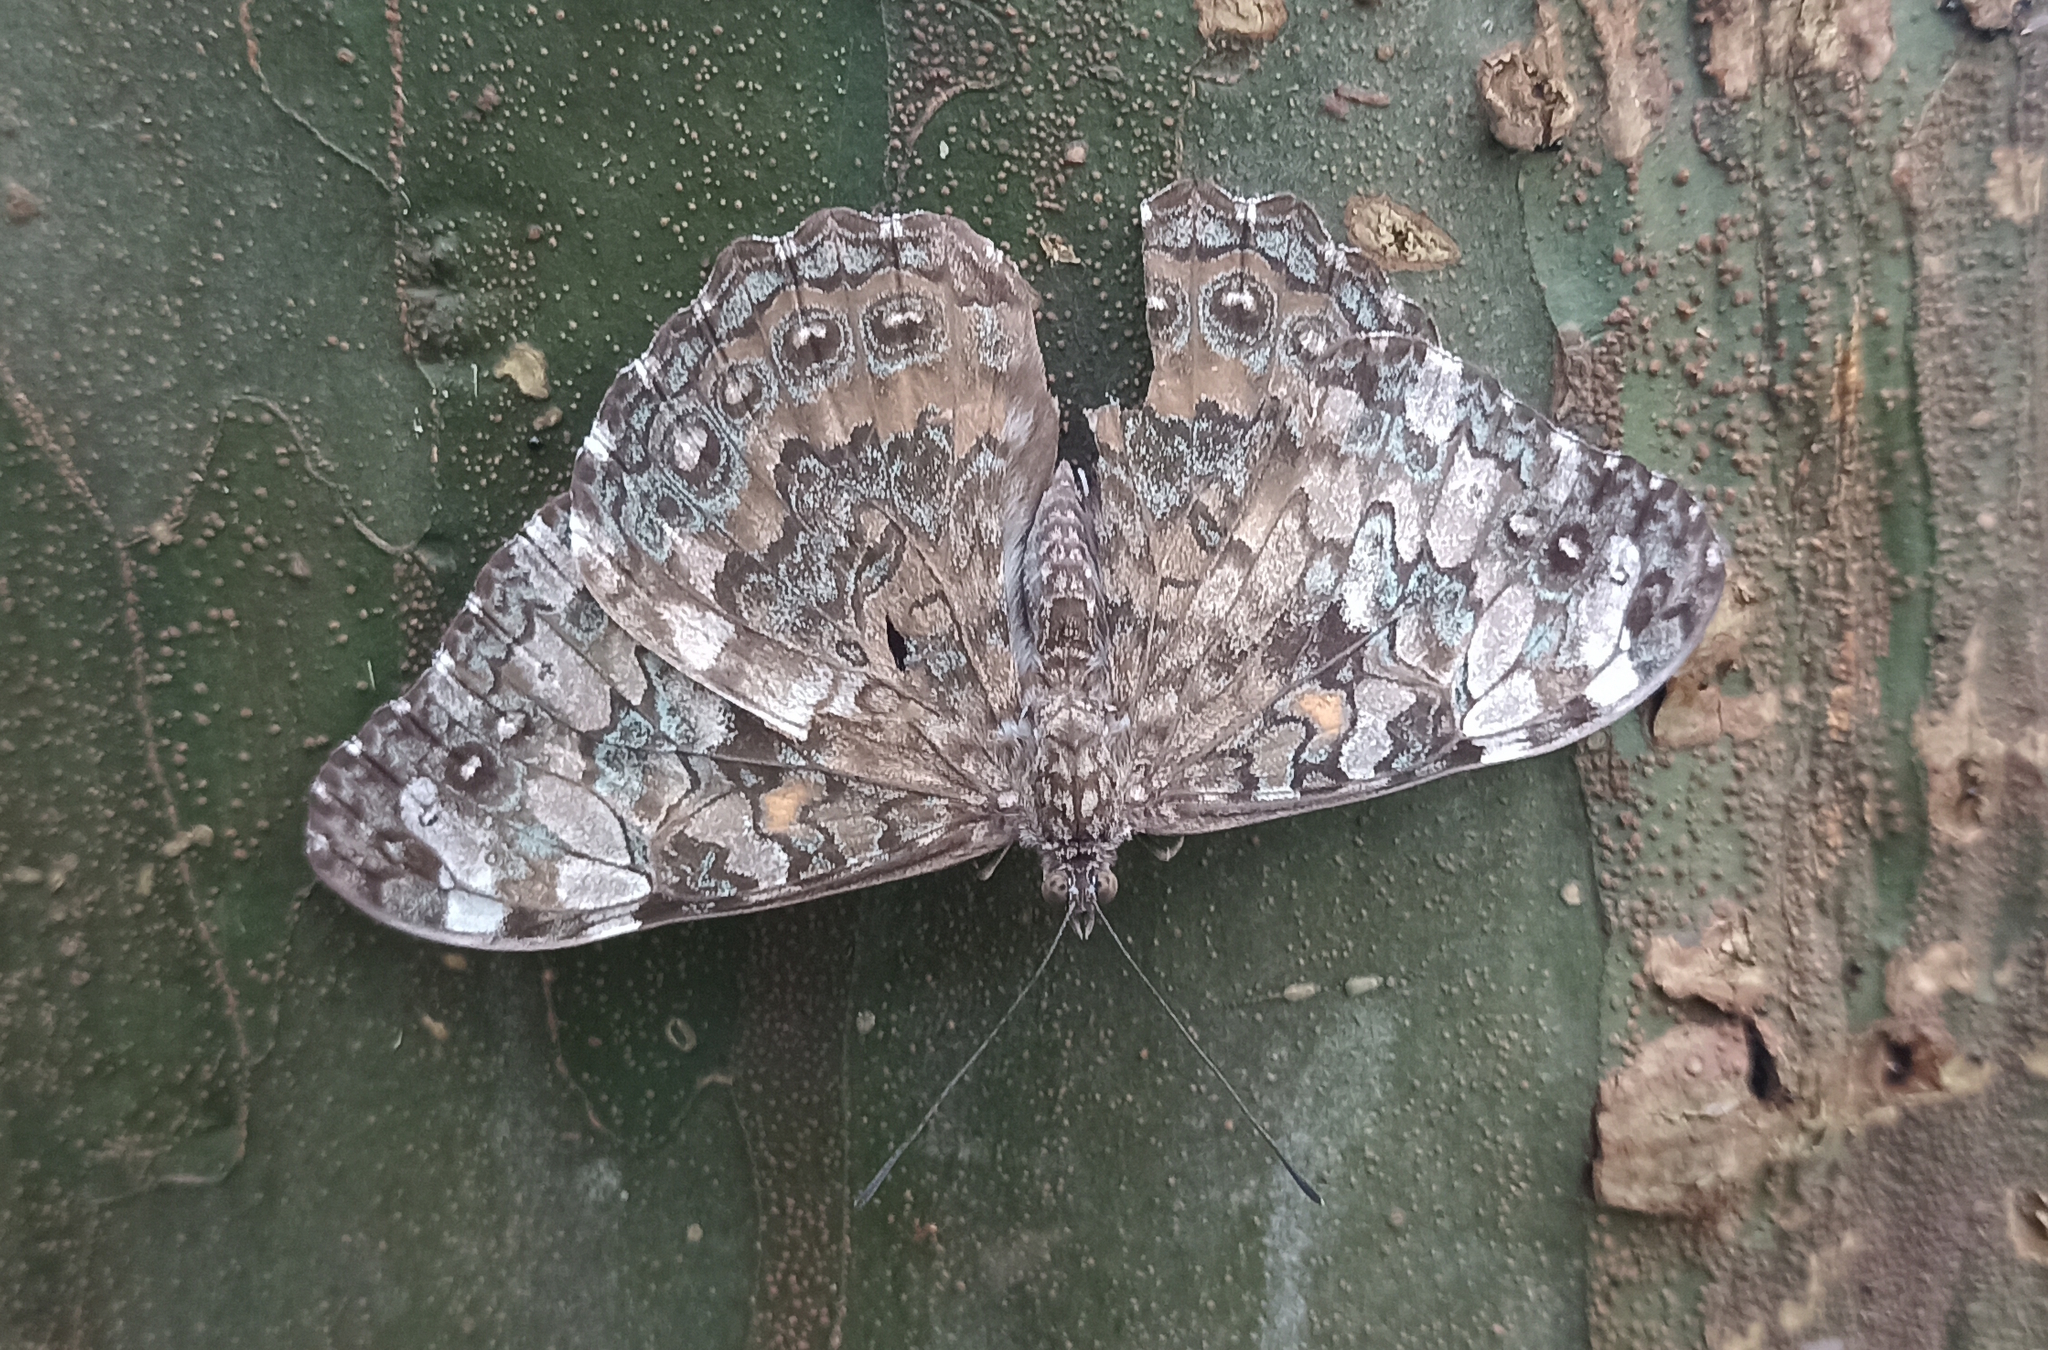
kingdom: Animalia
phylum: Arthropoda
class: Insecta
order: Lepidoptera
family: Nymphalidae
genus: Hamadryas
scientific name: Hamadryas epinome
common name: Epinome cracker
